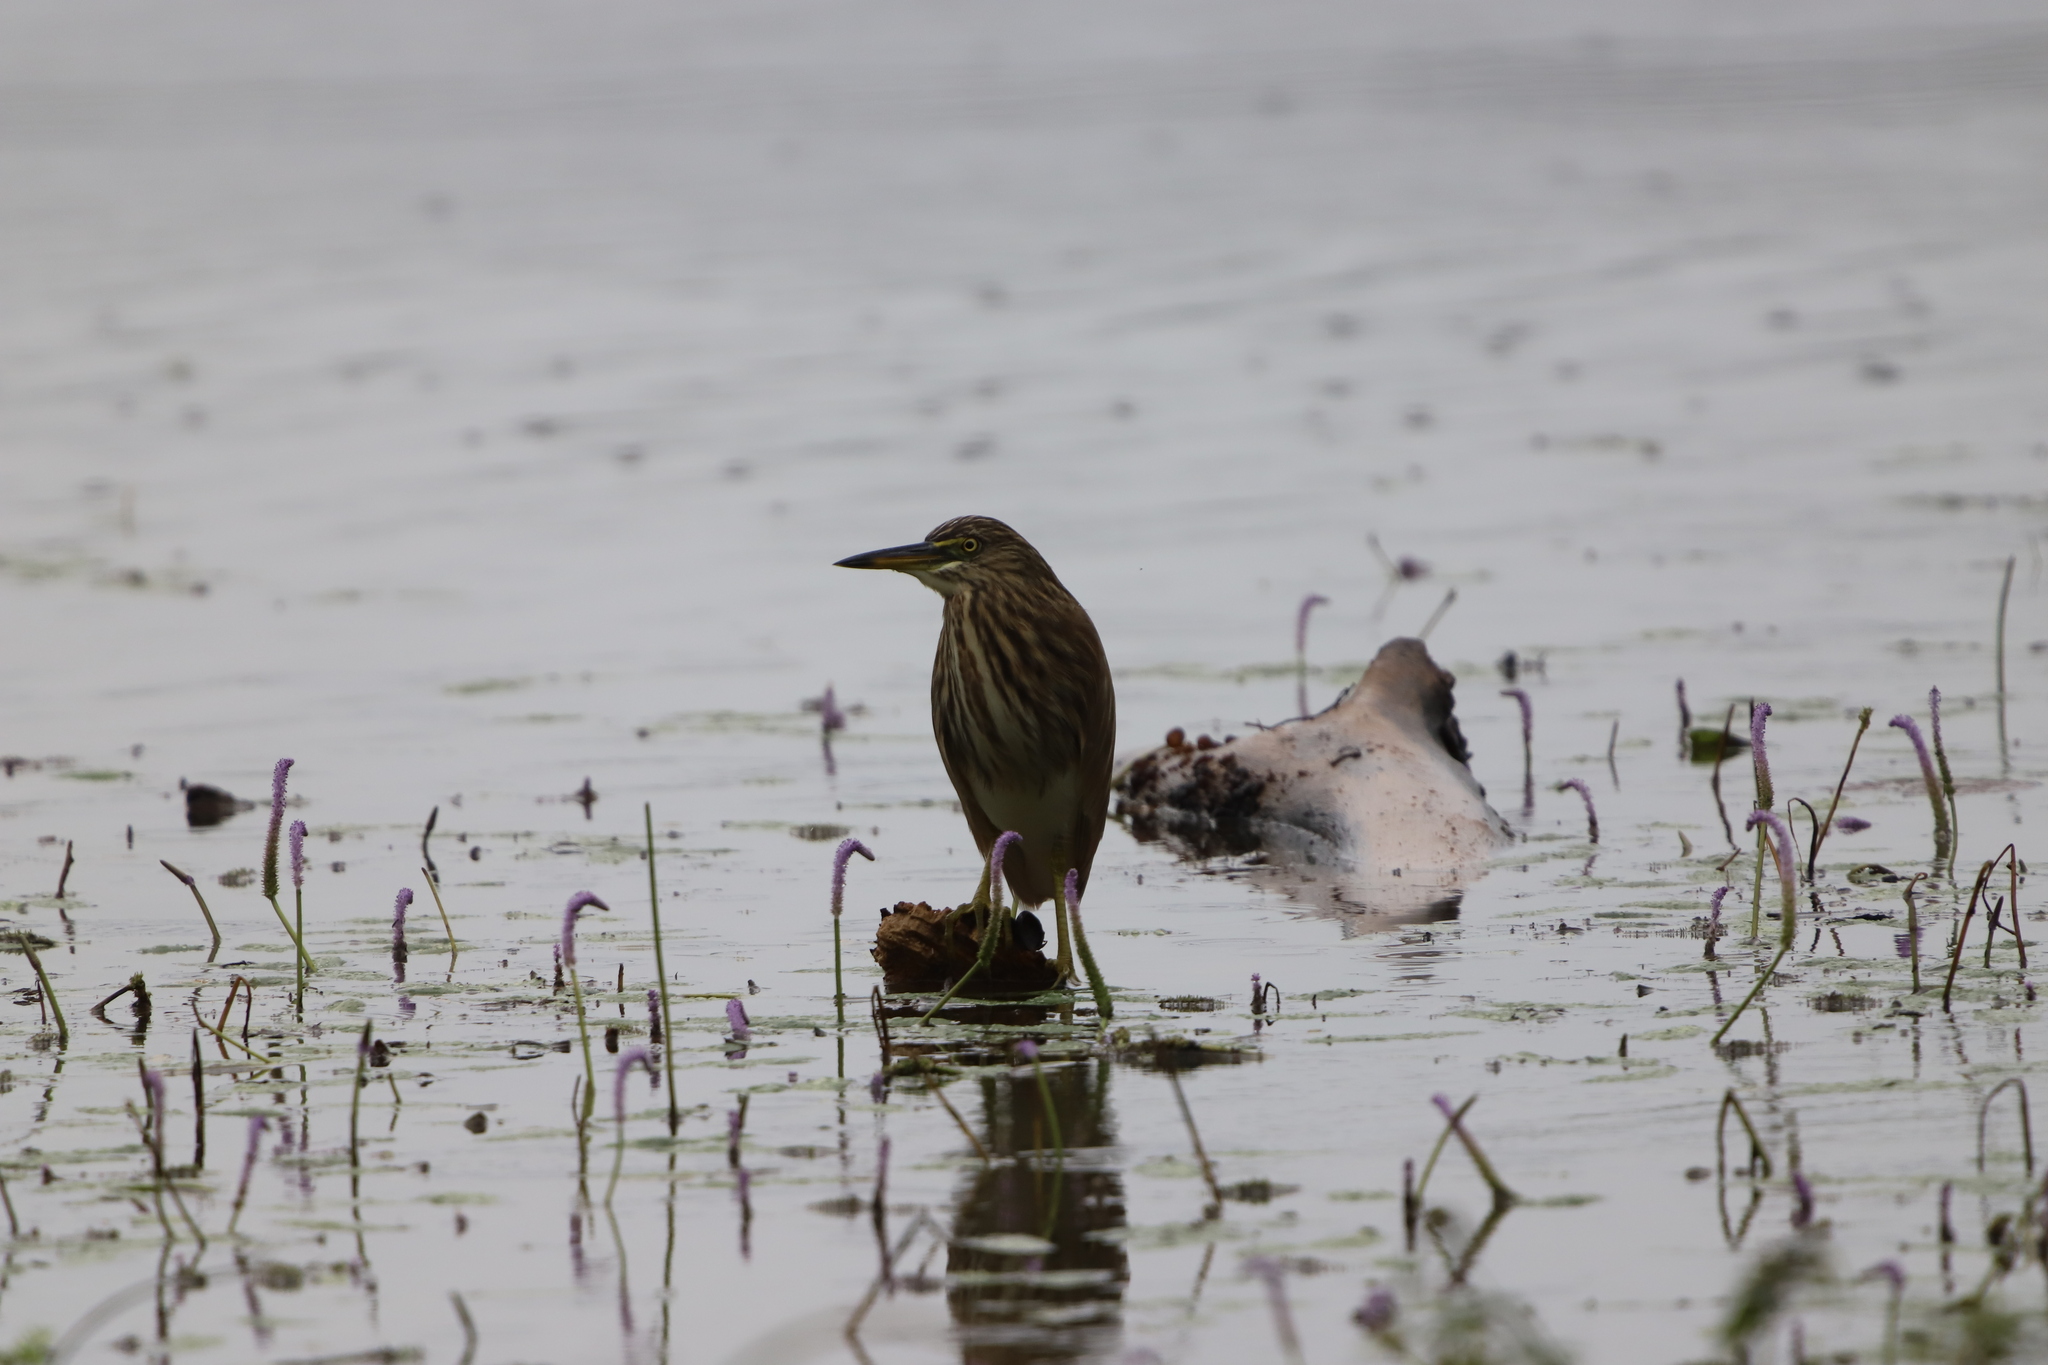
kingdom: Animalia
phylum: Chordata
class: Aves
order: Pelecaniformes
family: Ardeidae
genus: Ardeola
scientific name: Ardeola grayii
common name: Indian pond heron
